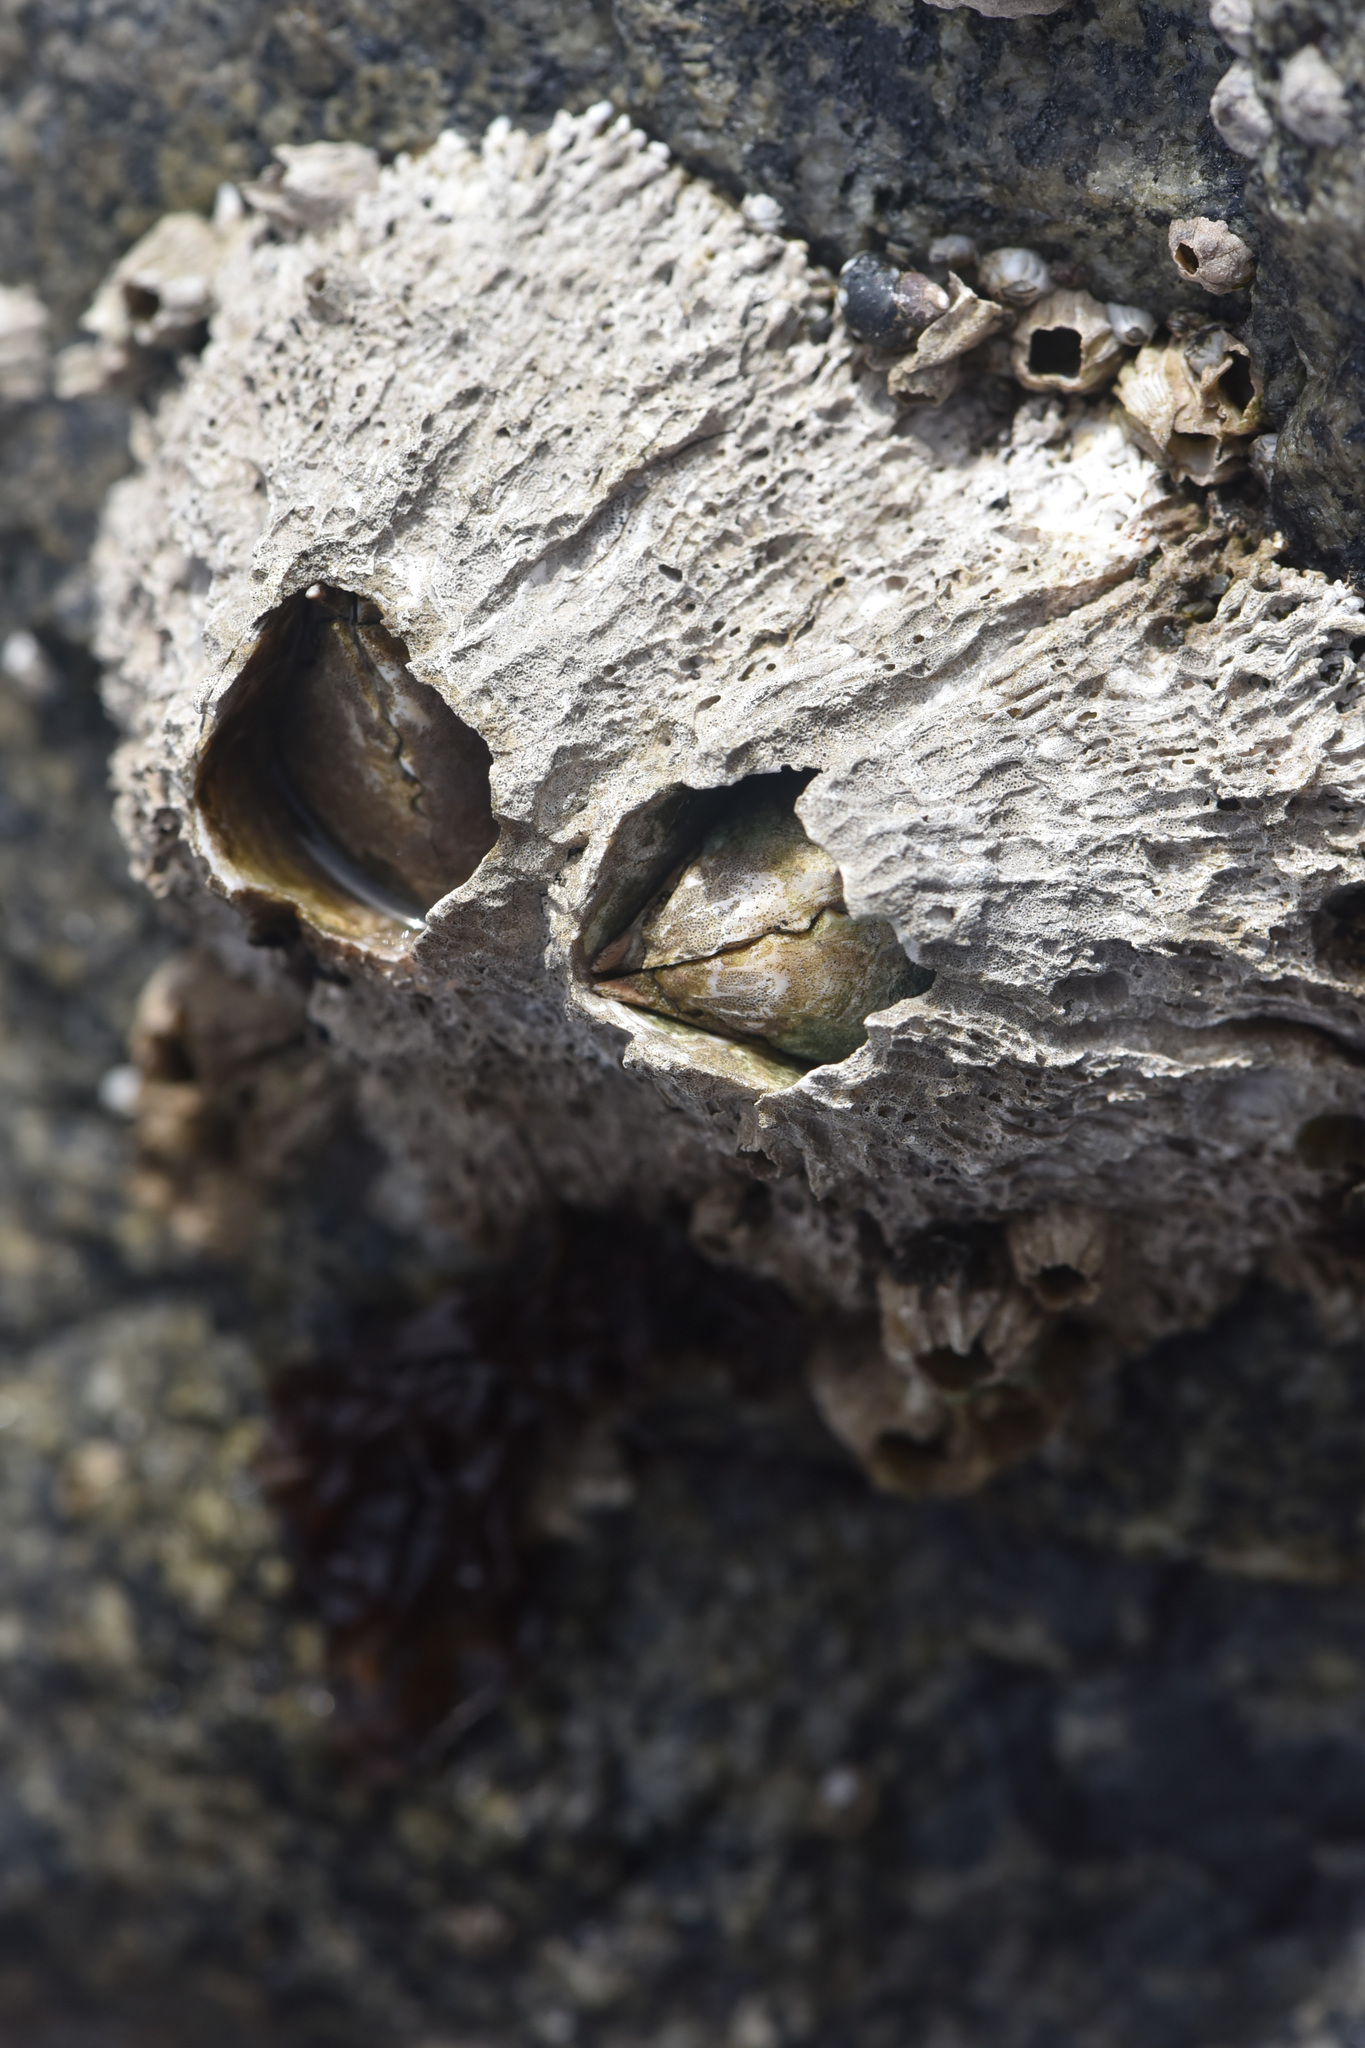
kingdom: Animalia
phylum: Arthropoda
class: Maxillopoda
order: Sessilia
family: Archaeobalanidae
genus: Semibalanus
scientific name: Semibalanus cariosus
